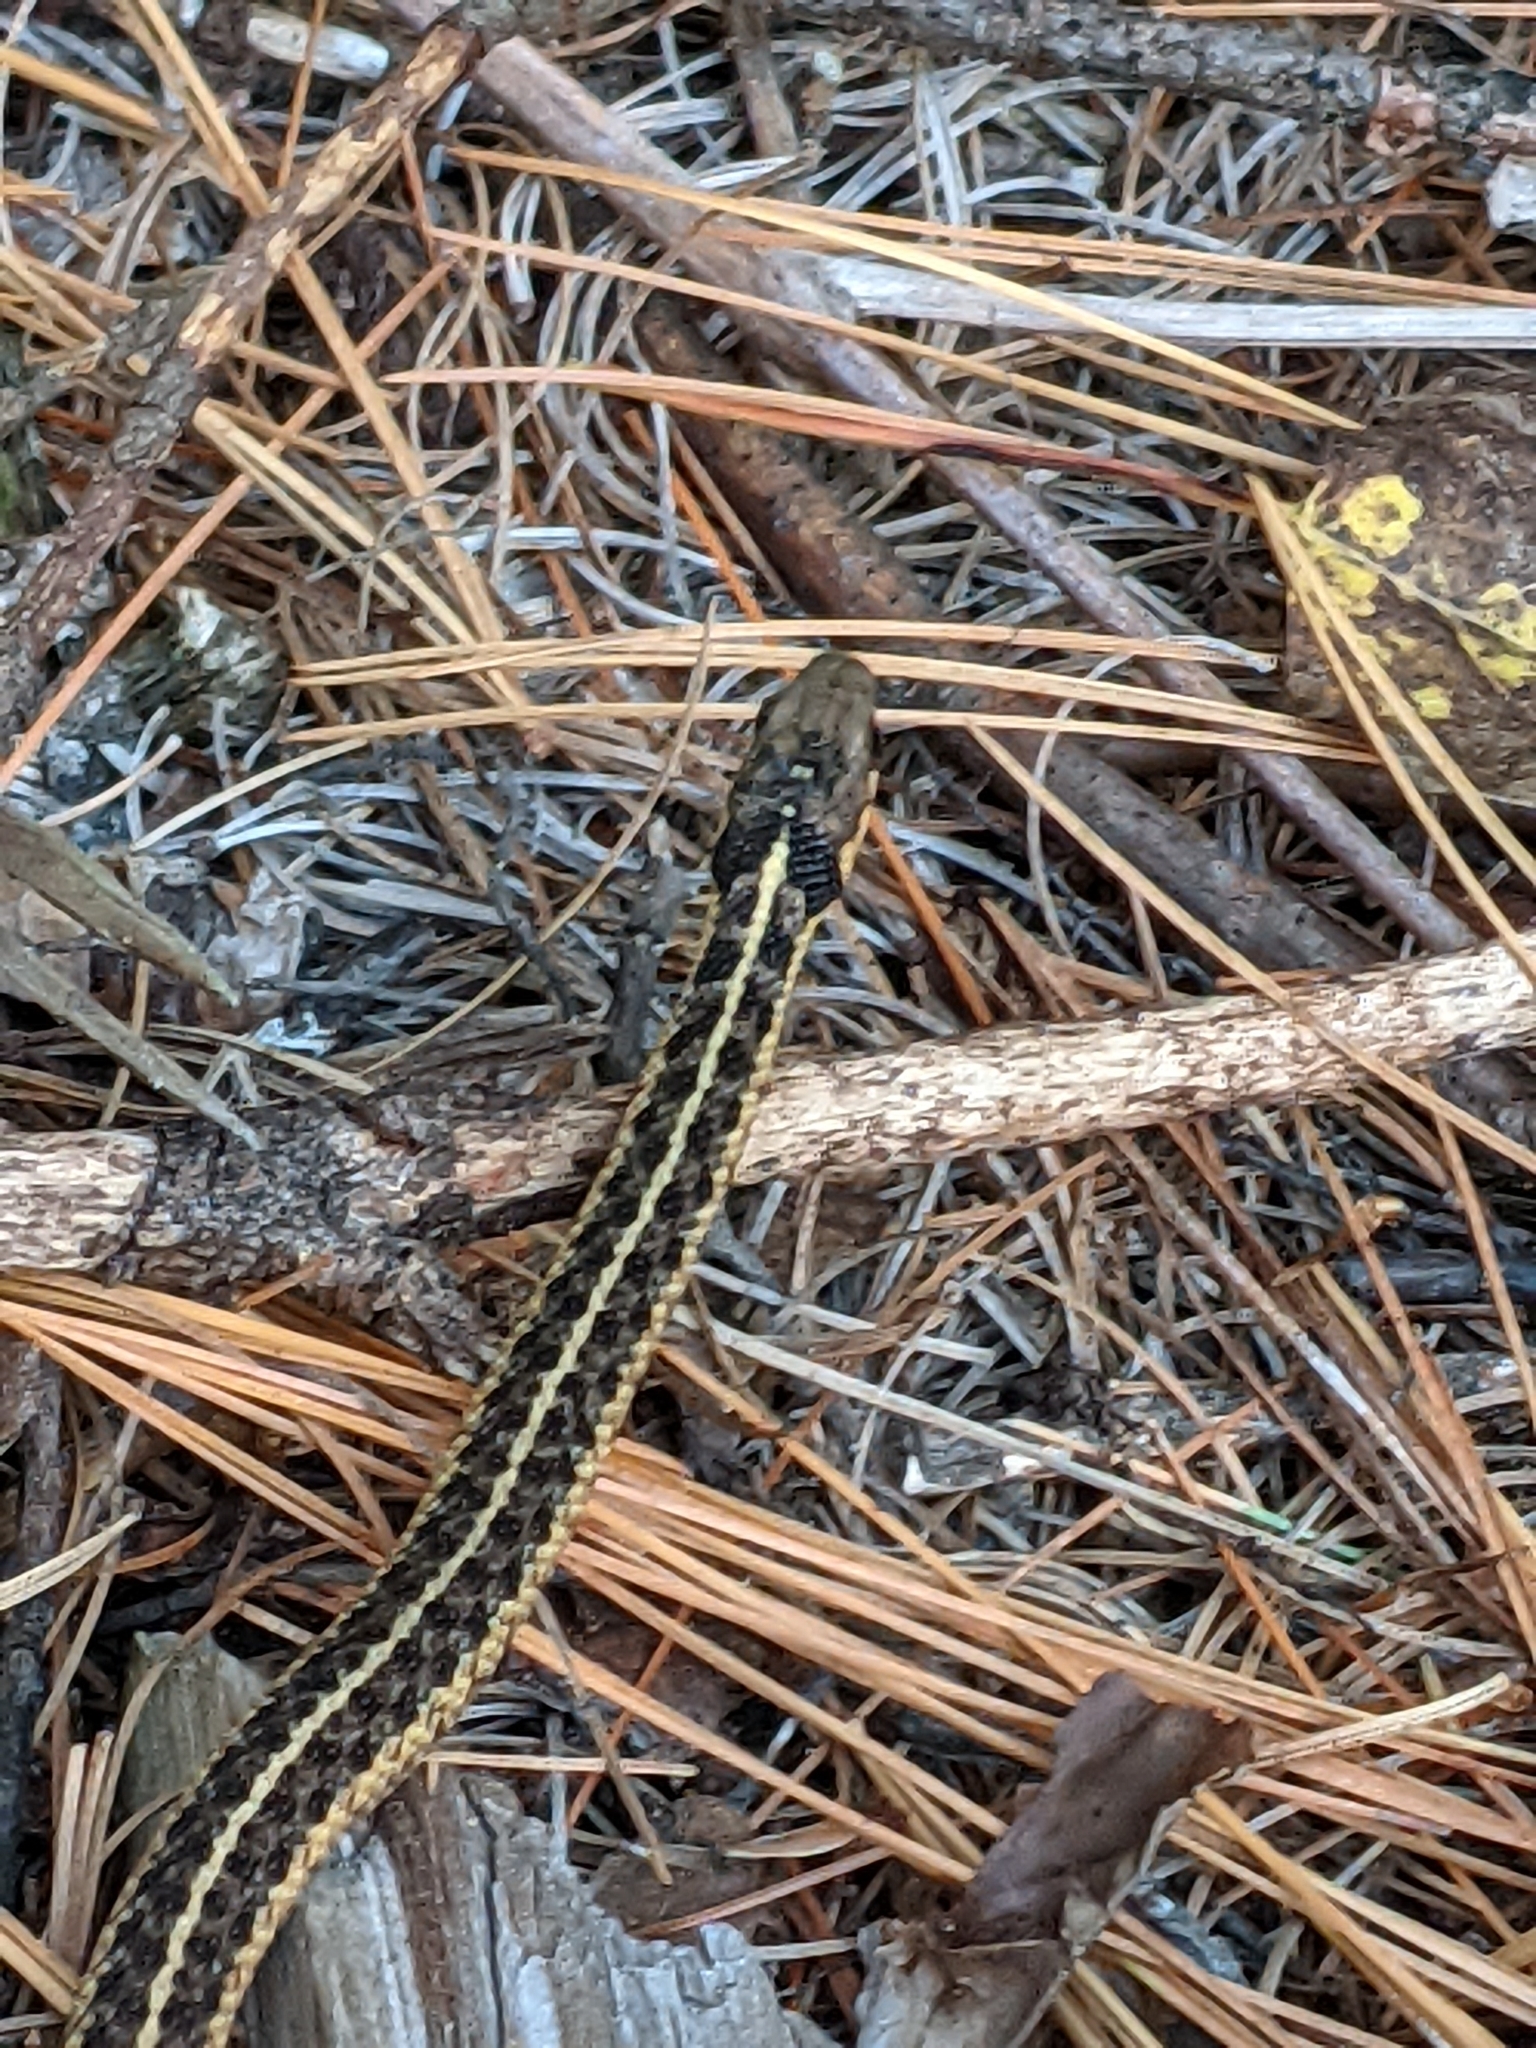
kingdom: Animalia
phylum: Chordata
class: Squamata
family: Colubridae
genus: Thamnophis
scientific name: Thamnophis sirtalis
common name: Common garter snake
